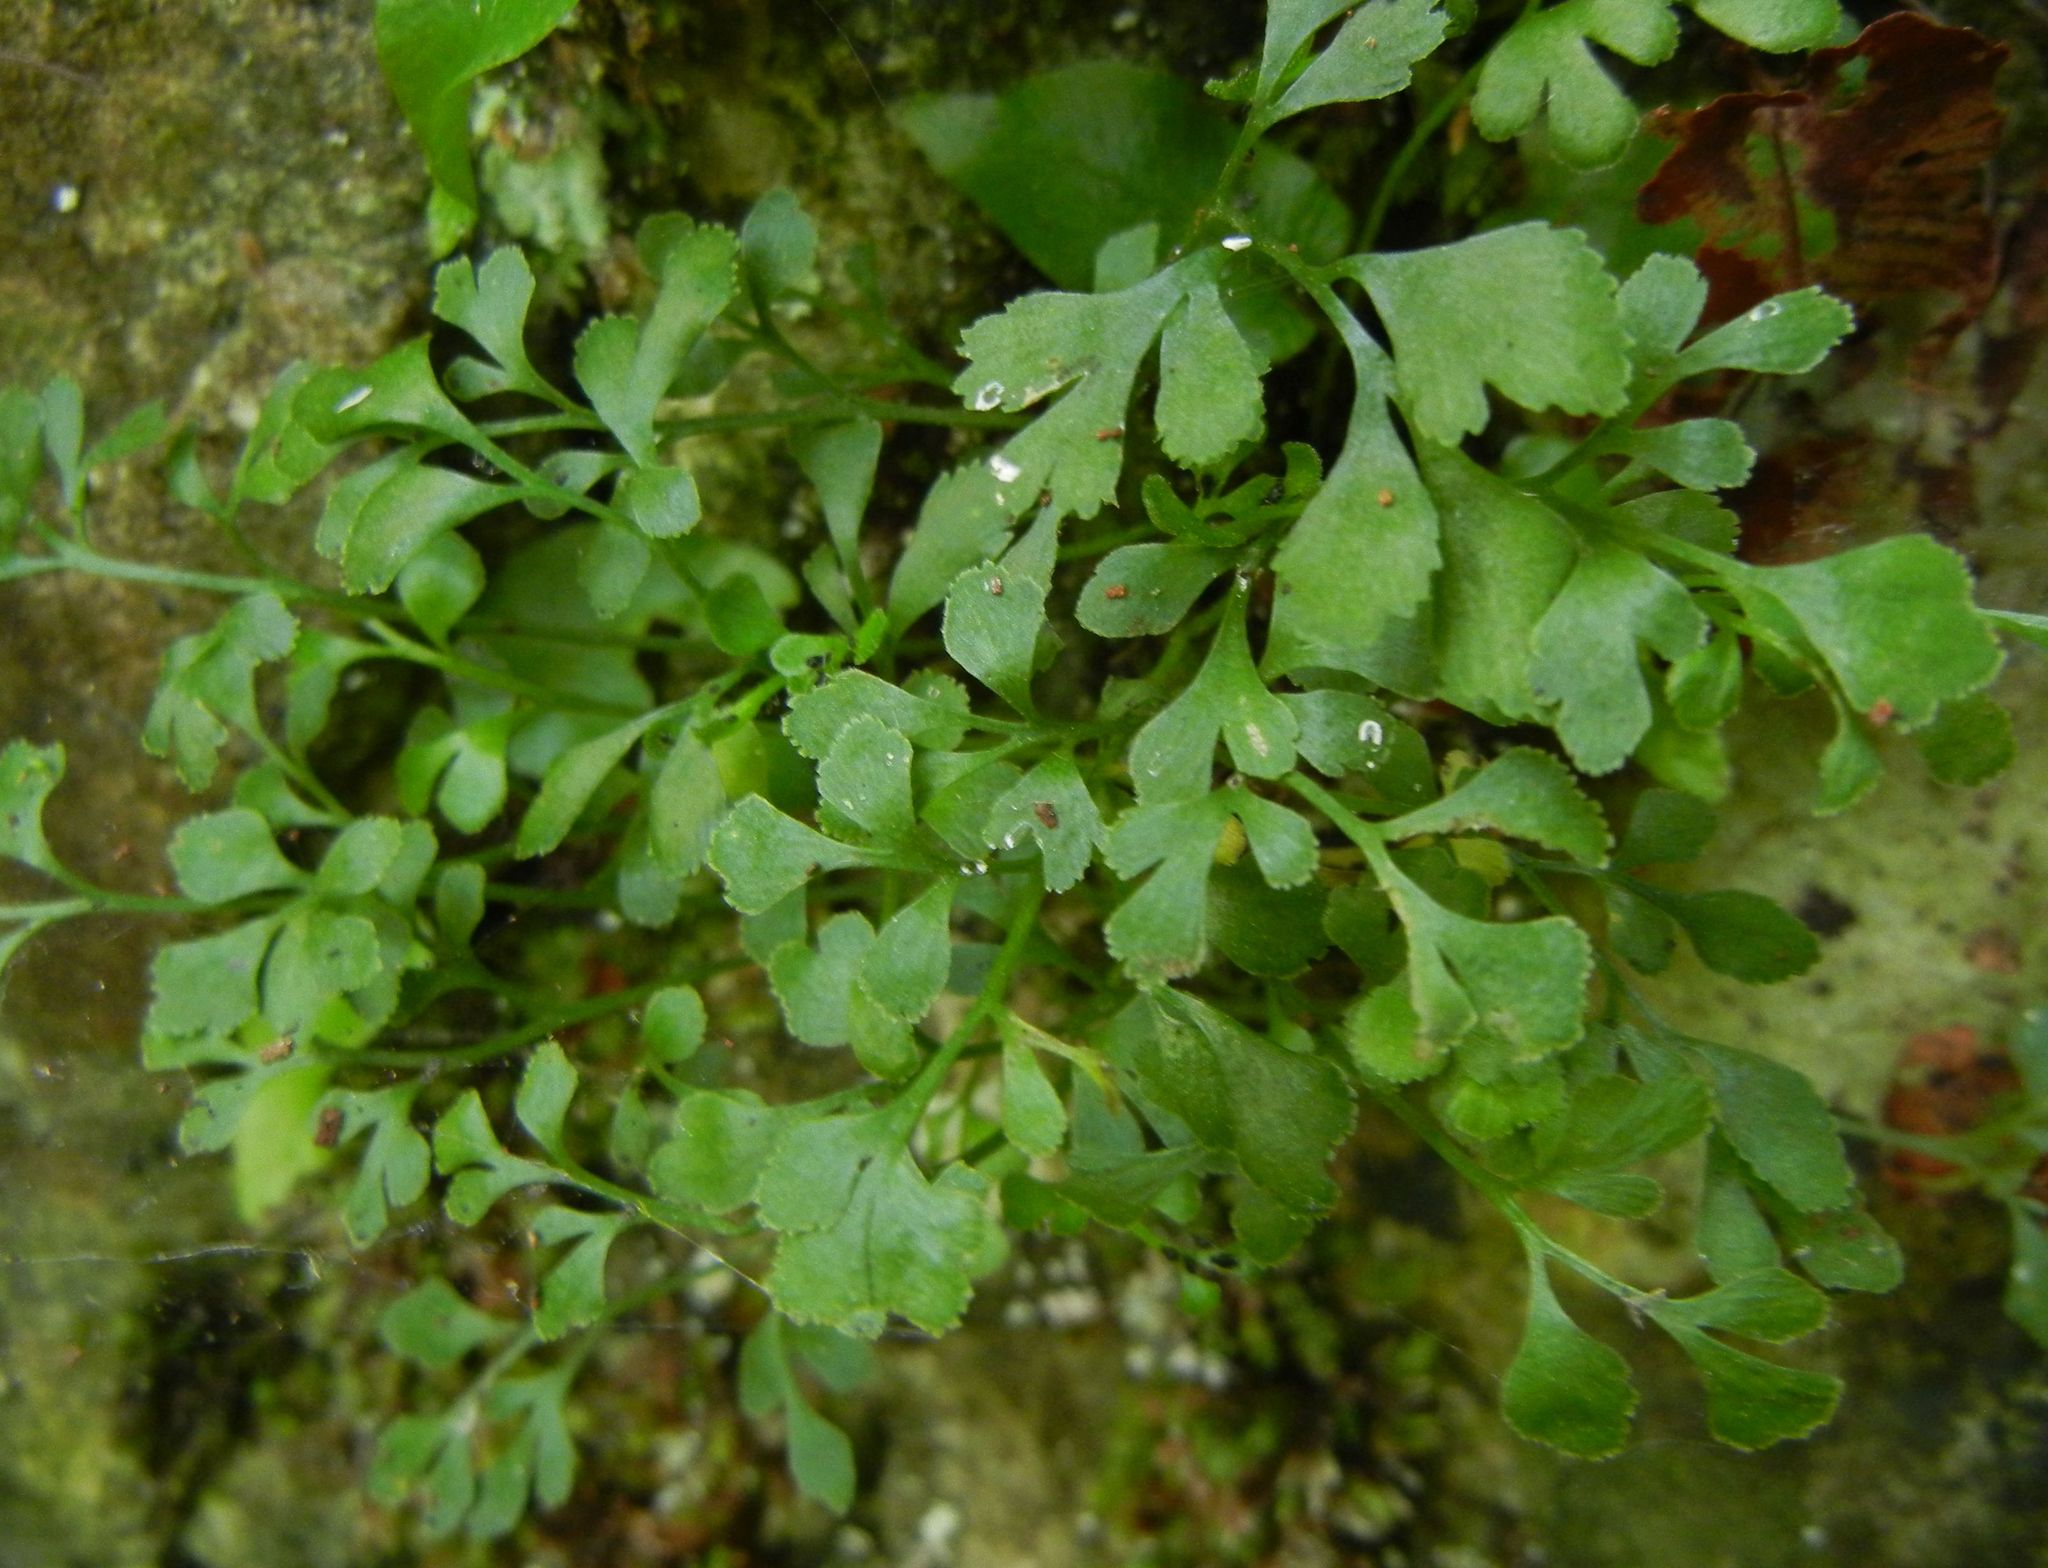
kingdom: Plantae
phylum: Tracheophyta
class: Polypodiopsida
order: Polypodiales
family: Aspleniaceae
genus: Asplenium
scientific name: Asplenium ruta-muraria
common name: Wall-rue
